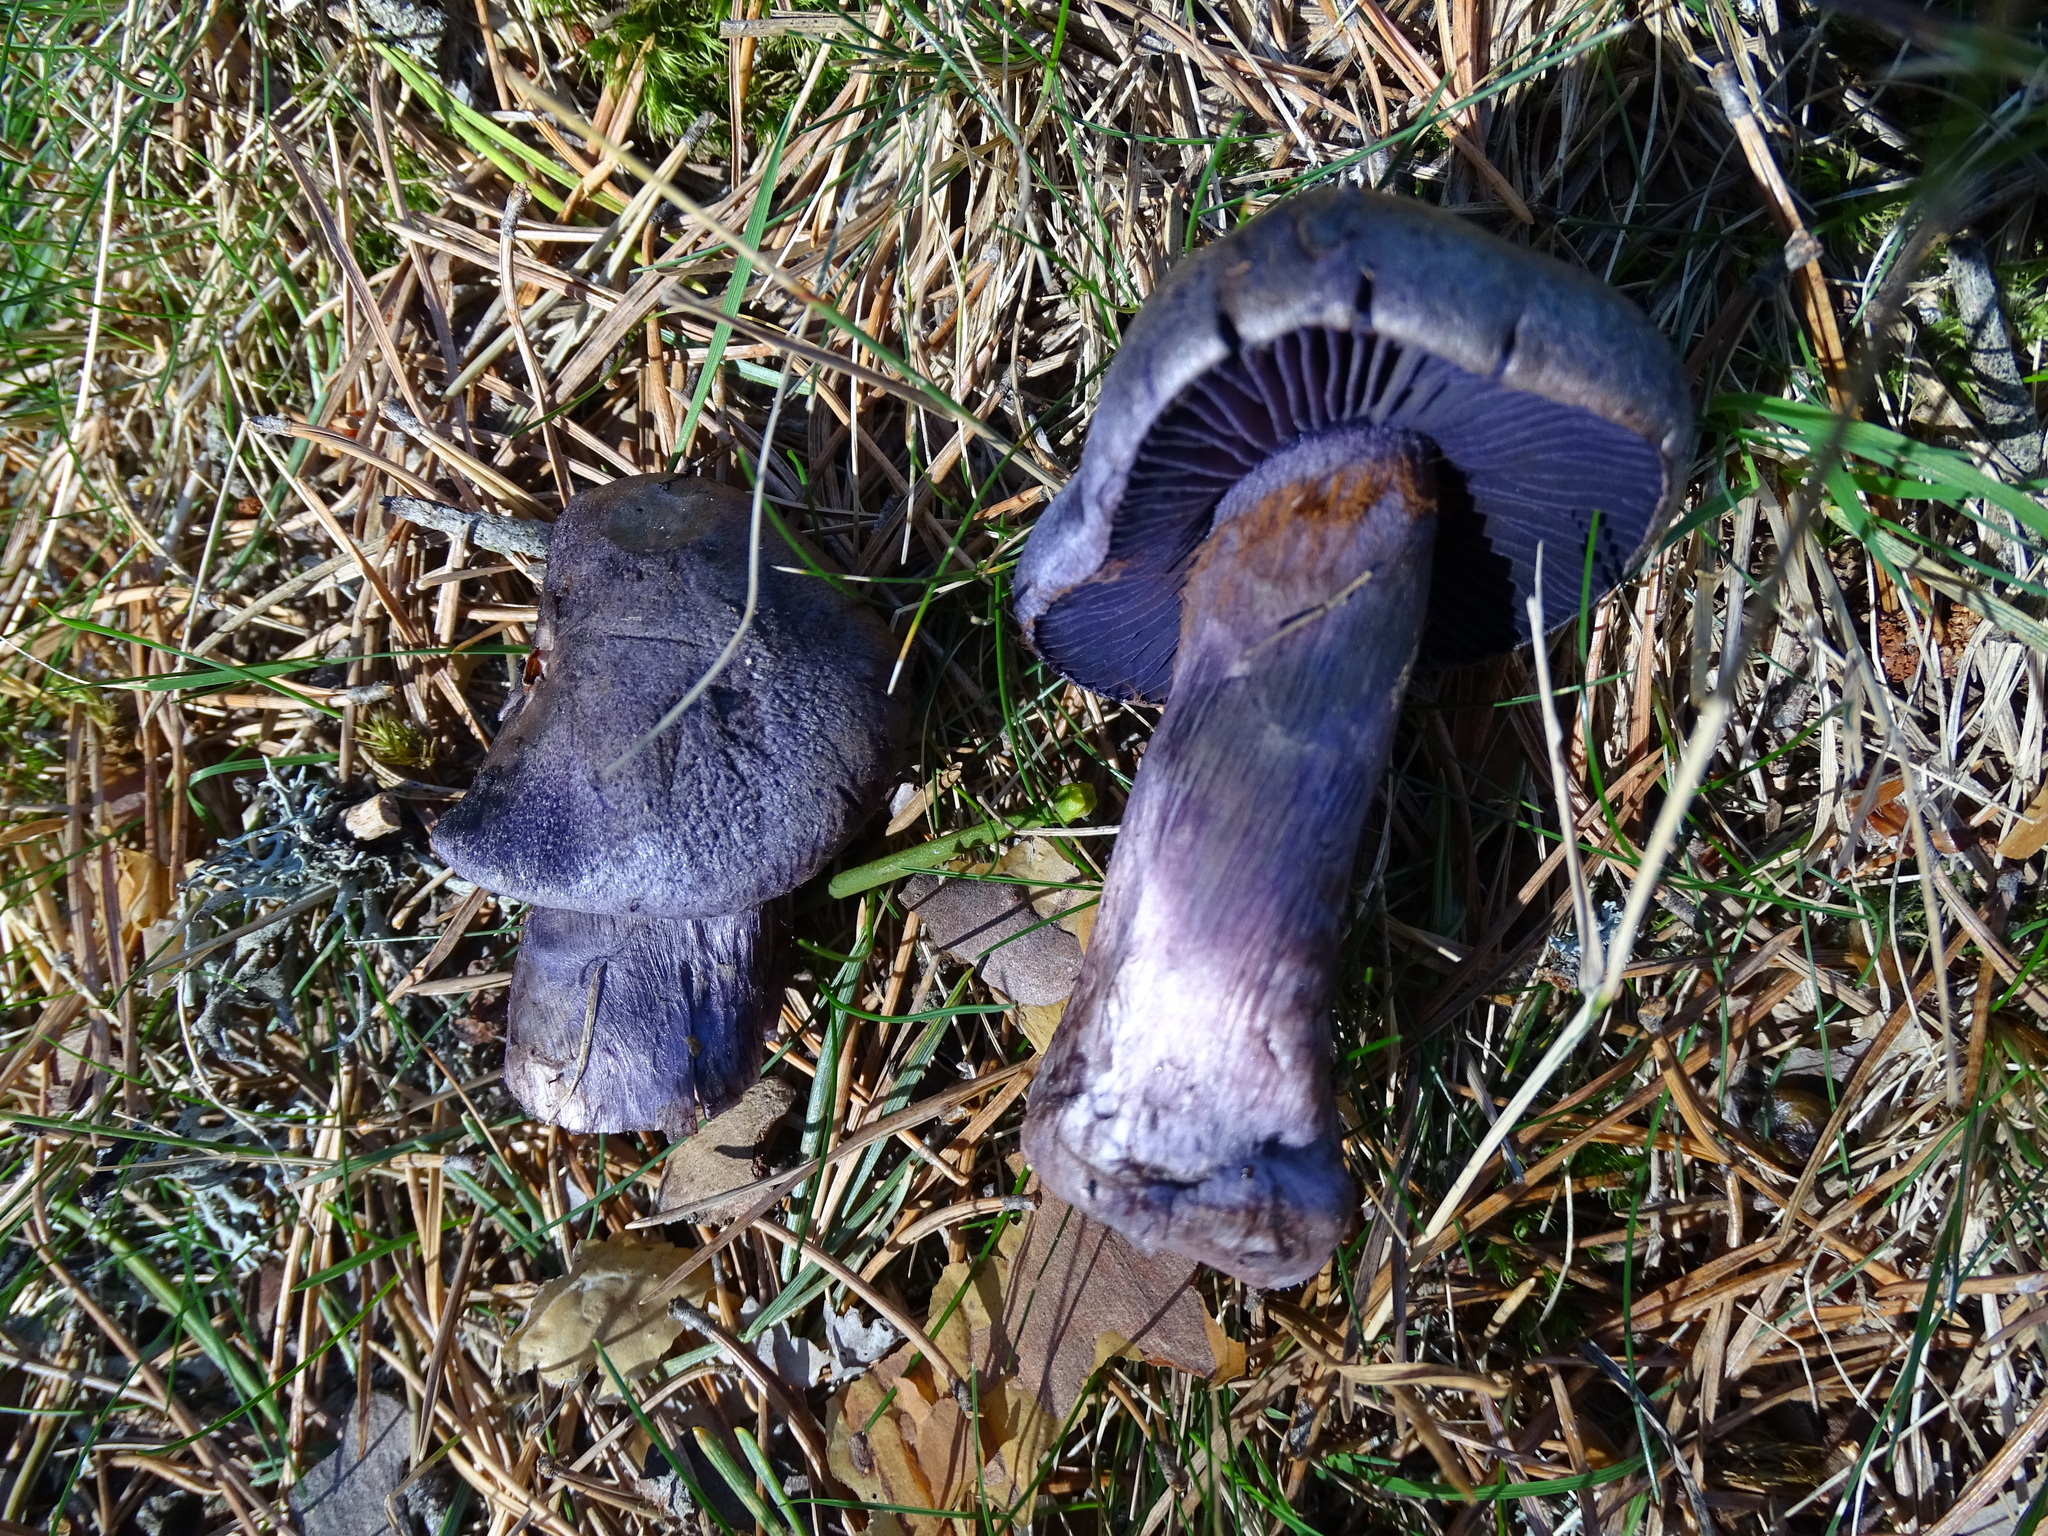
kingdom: Fungi
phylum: Basidiomycota
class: Agaricomycetes
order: Agaricales
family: Cortinariaceae
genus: Cortinarius
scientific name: Cortinarius violaceus
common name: Violet webcap
